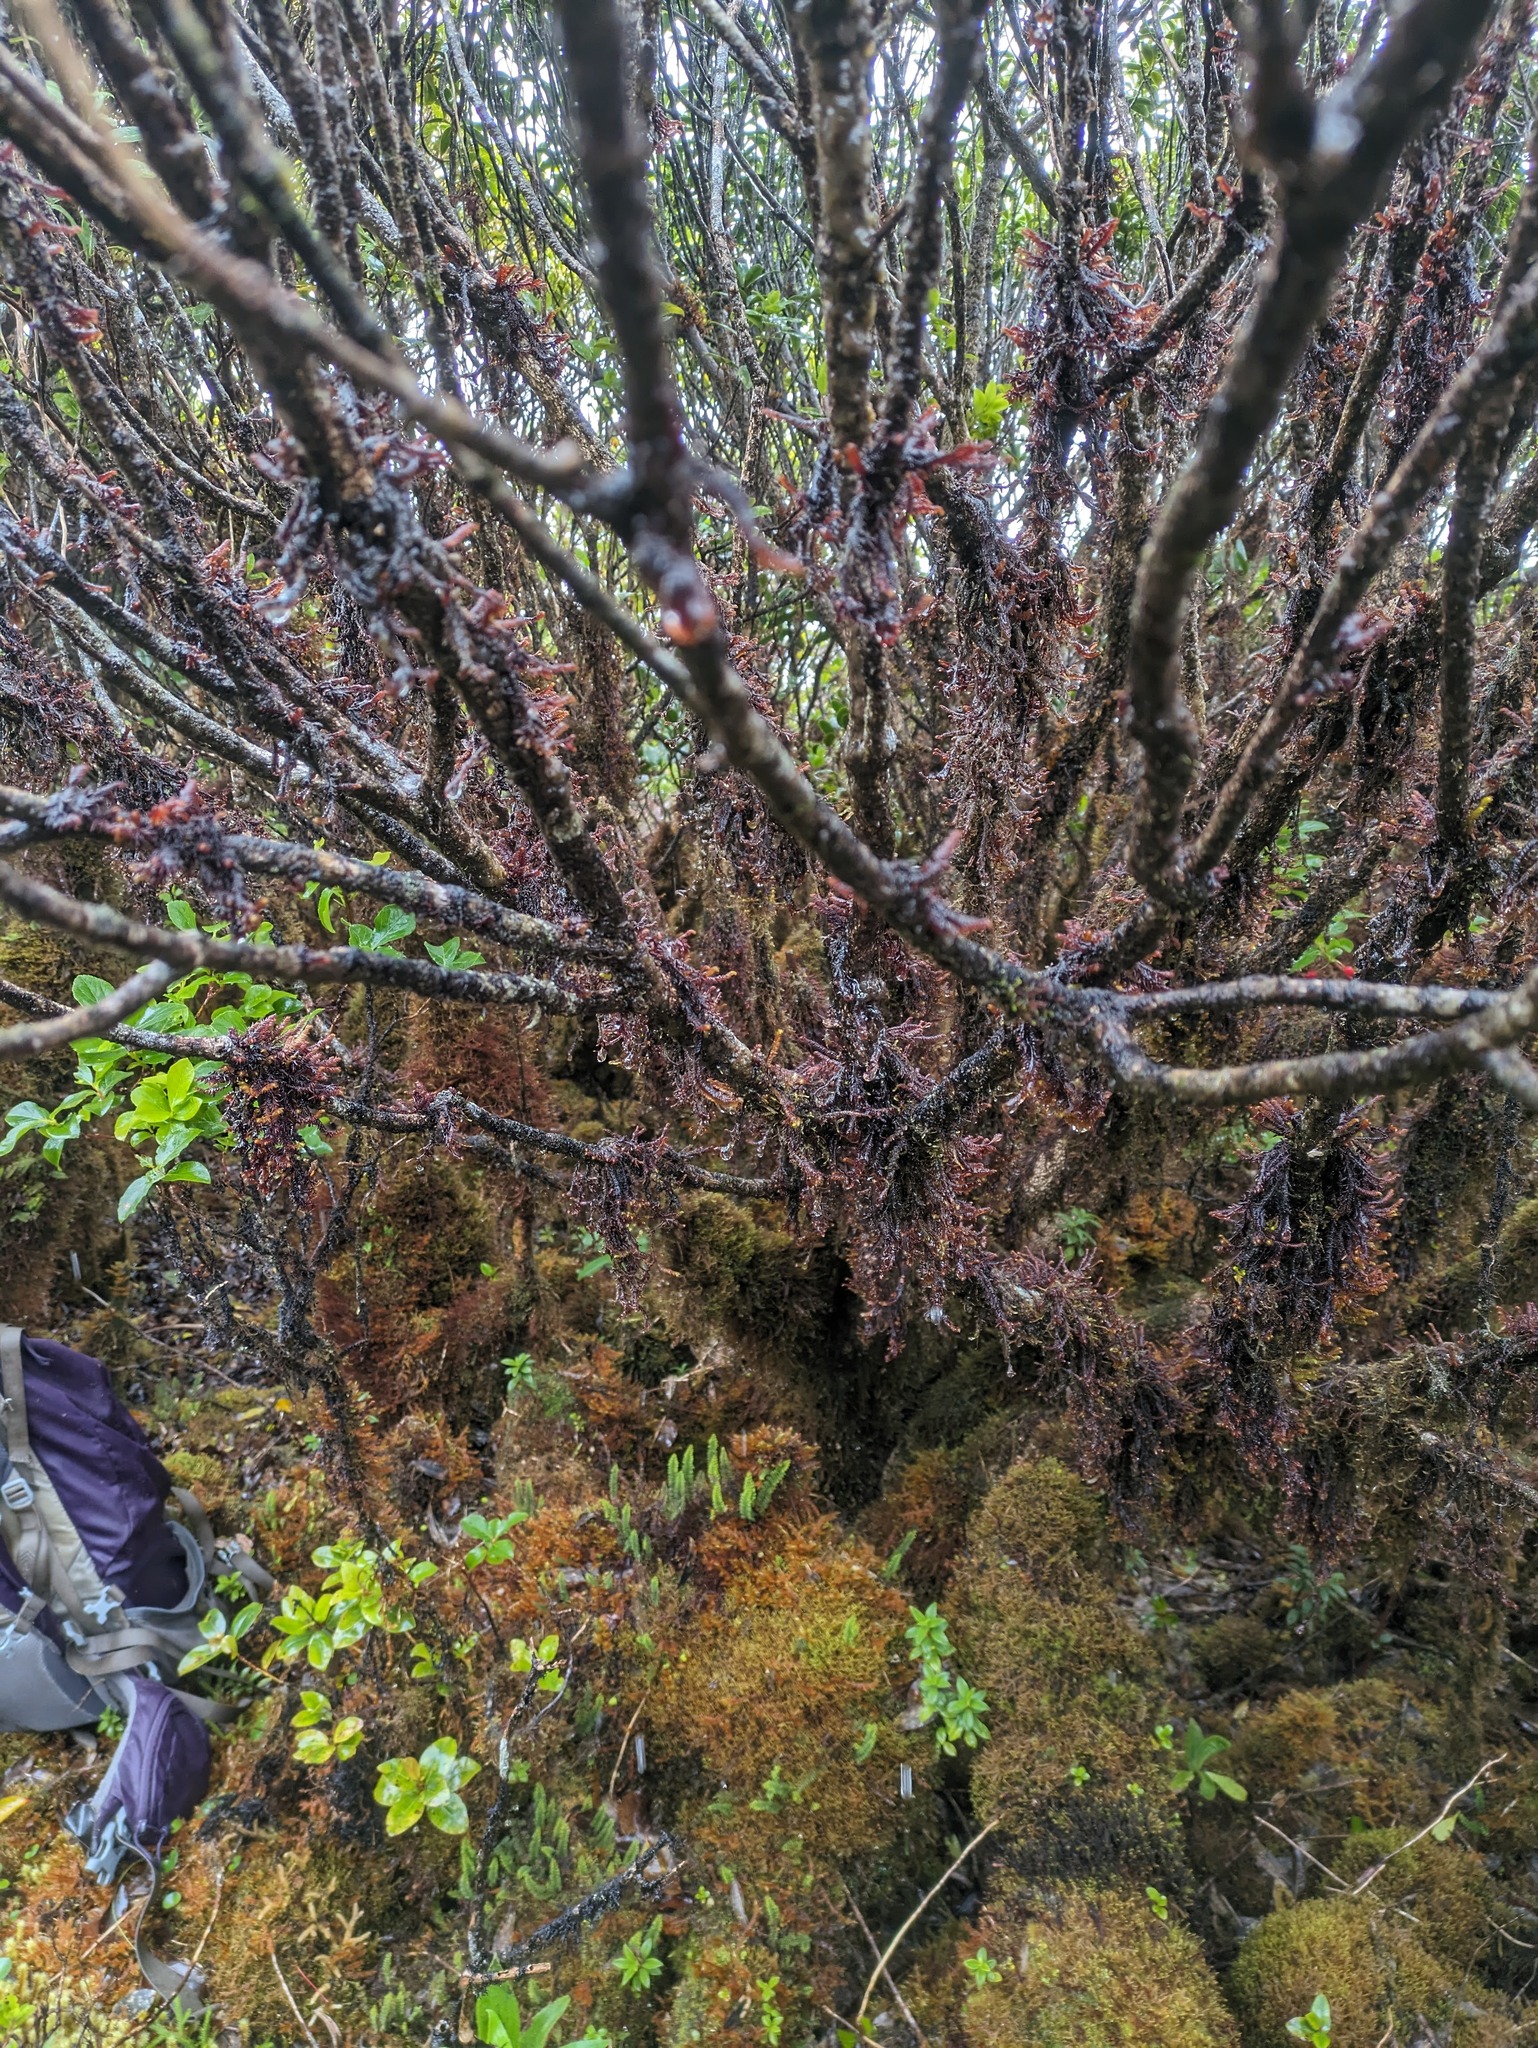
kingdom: Plantae
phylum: Marchantiophyta
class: Jungermanniopsida
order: Pleuroziales
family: Pleuroziaceae
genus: Pleurozia
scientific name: Pleurozia subinflata
